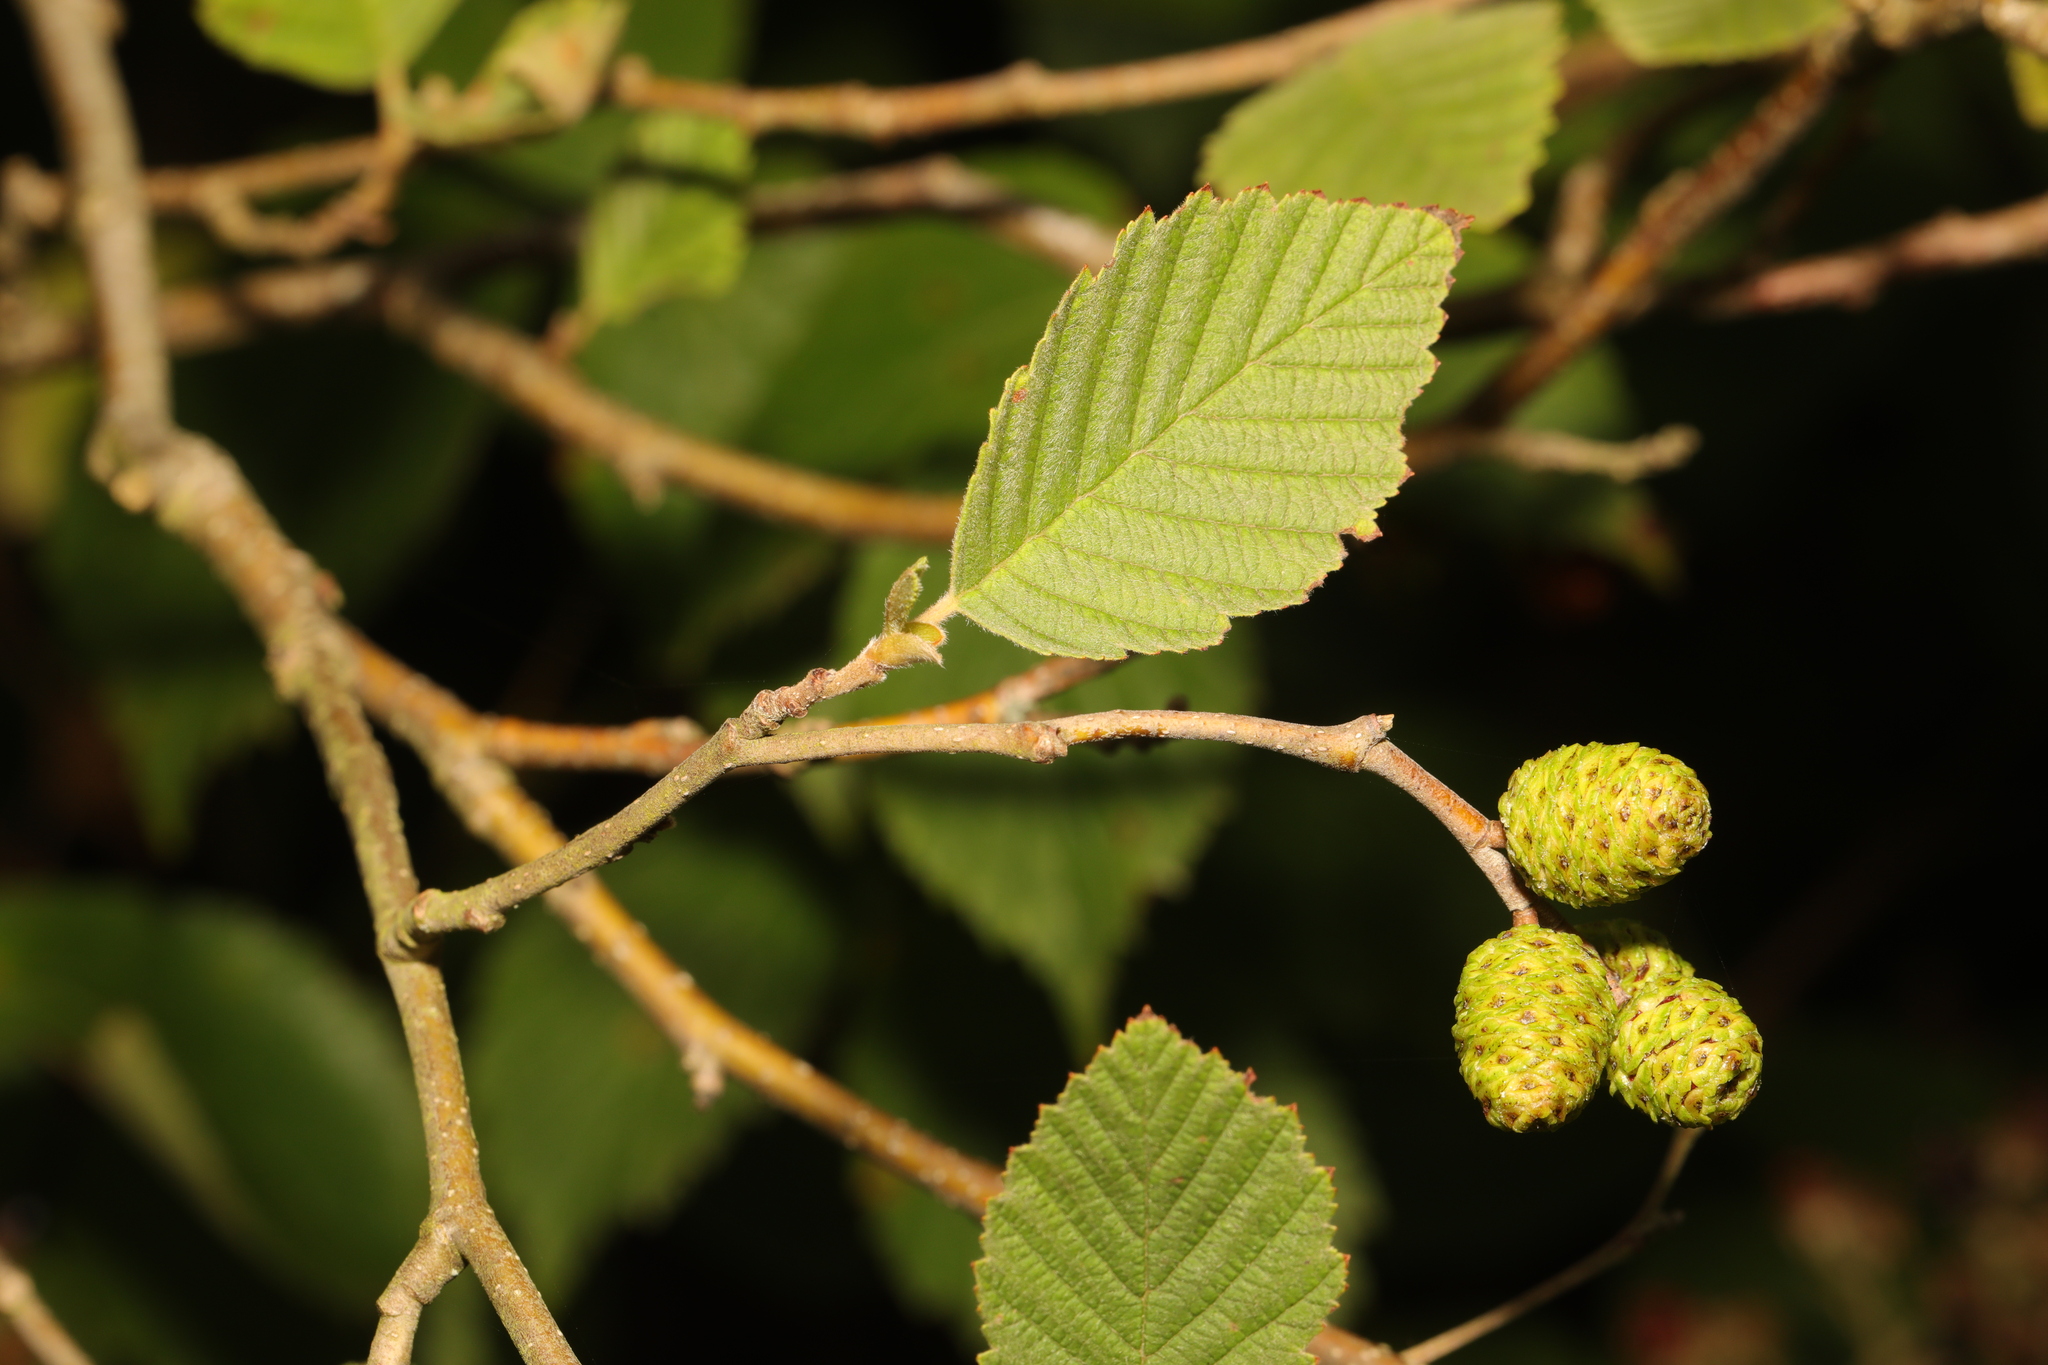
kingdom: Plantae
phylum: Tracheophyta
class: Magnoliopsida
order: Fagales
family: Betulaceae
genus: Alnus
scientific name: Alnus incana
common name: Grey alder
